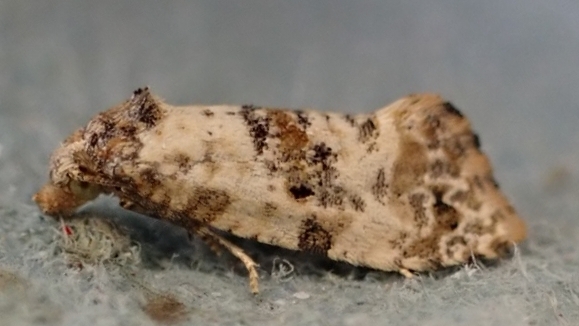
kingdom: Animalia
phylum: Arthropoda
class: Insecta
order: Lepidoptera
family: Tortricidae
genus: Cochylis
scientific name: Cochylis hybridella
